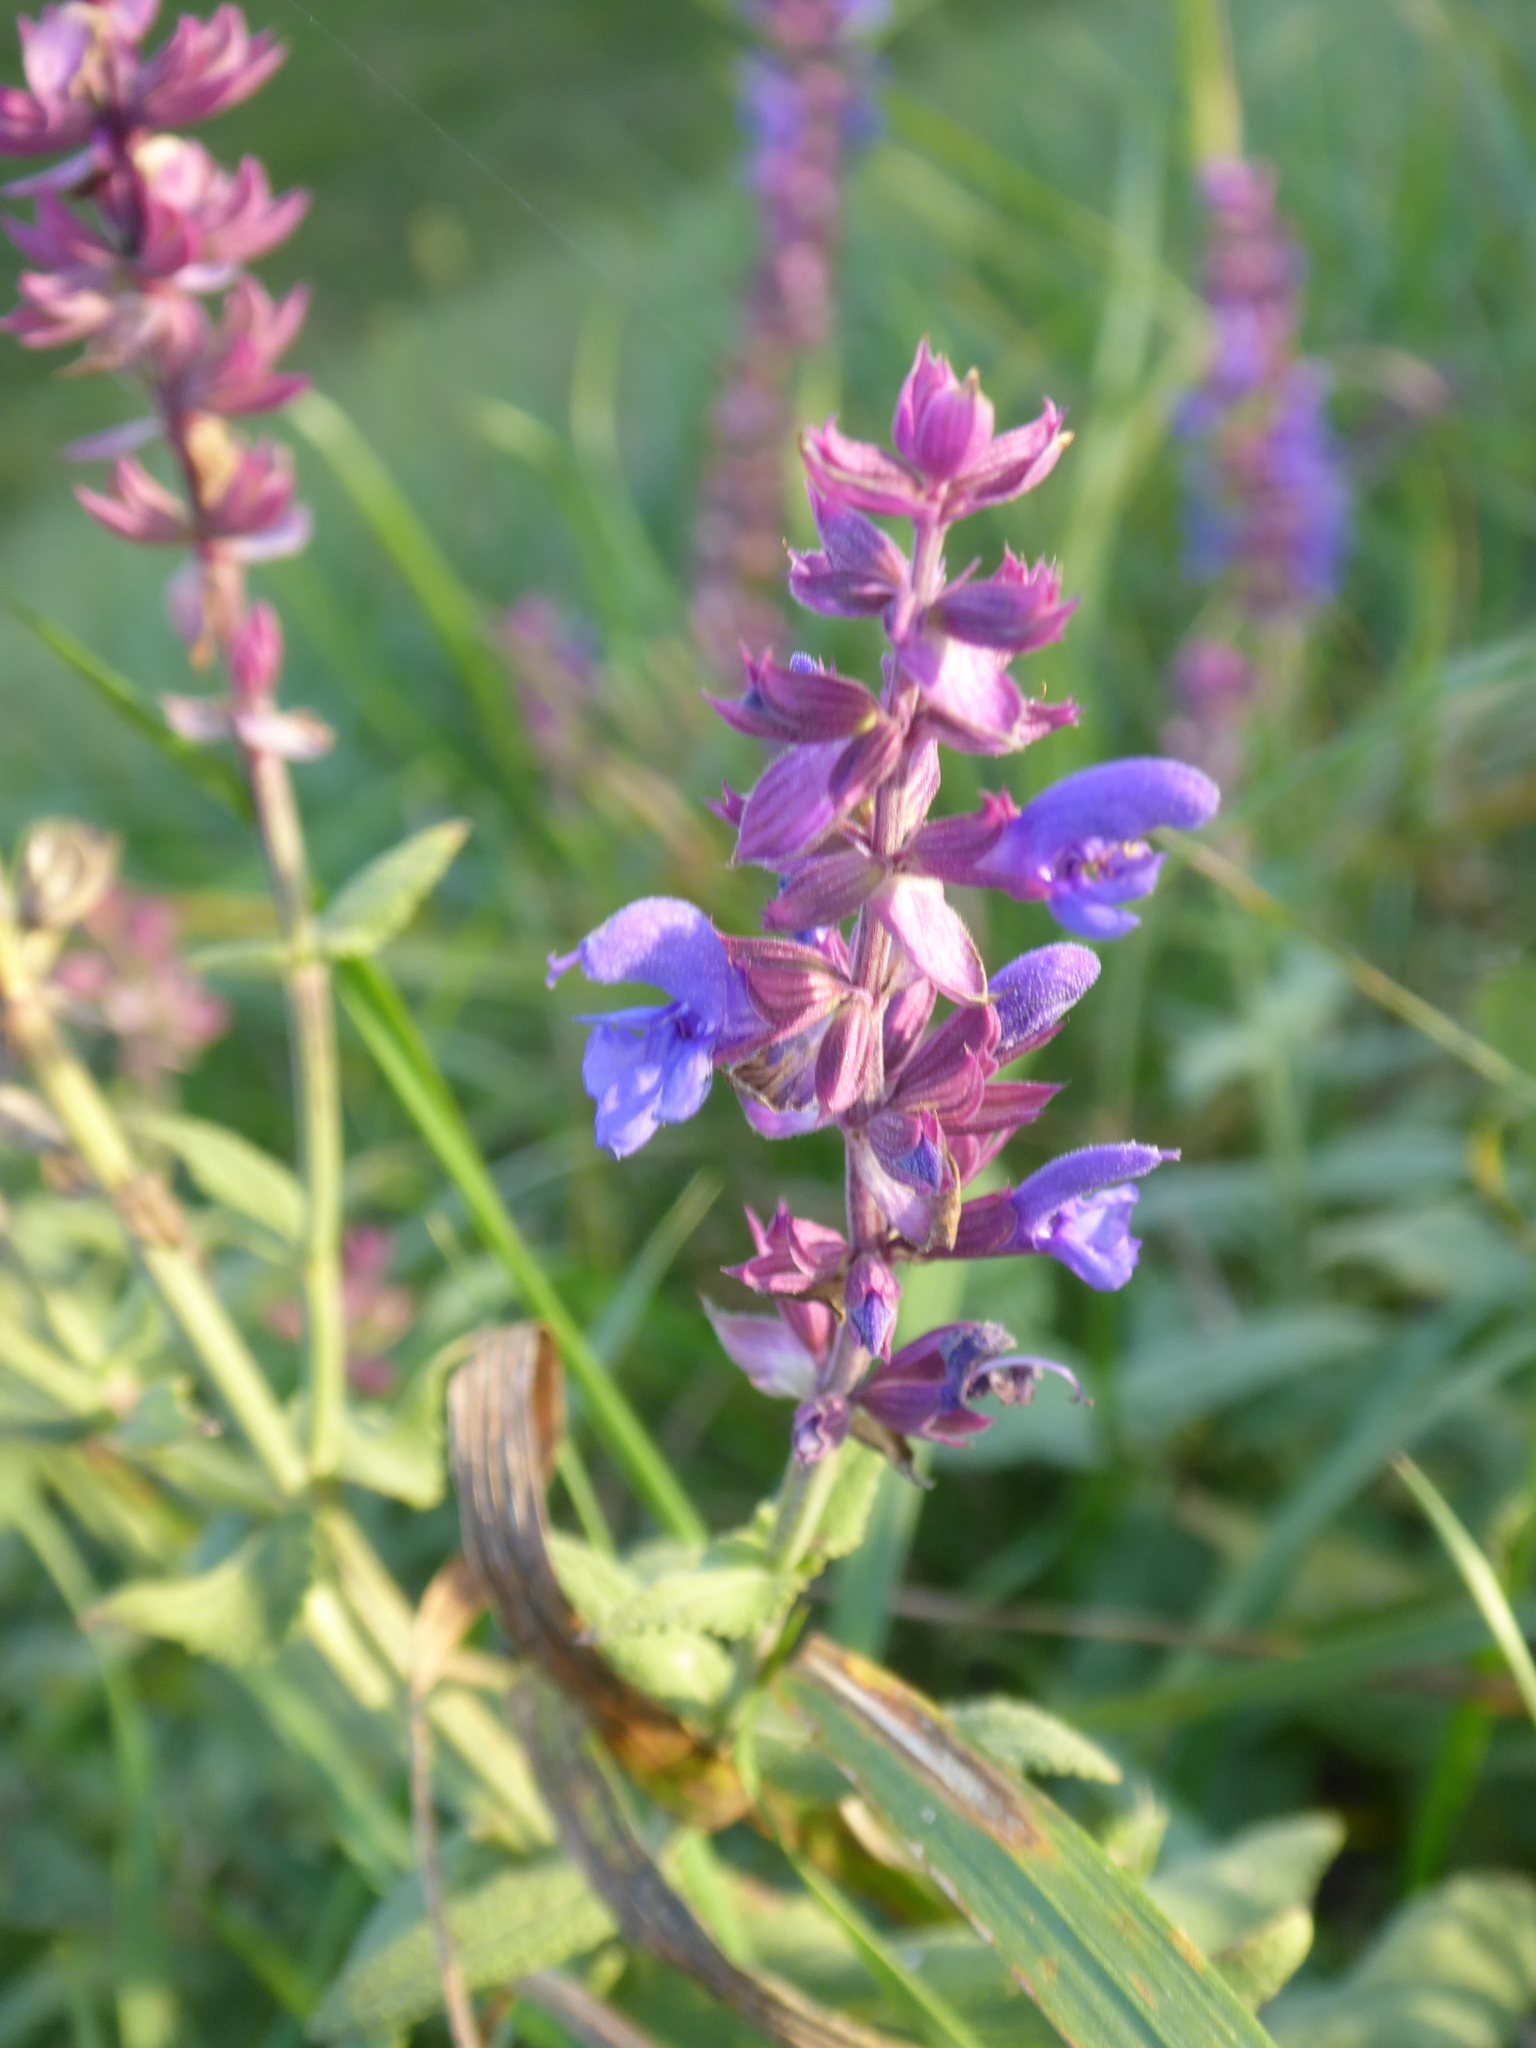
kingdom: Plantae
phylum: Tracheophyta
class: Magnoliopsida
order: Lamiales
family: Lamiaceae
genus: Salvia
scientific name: Salvia nemorosa
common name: Balkan clary
